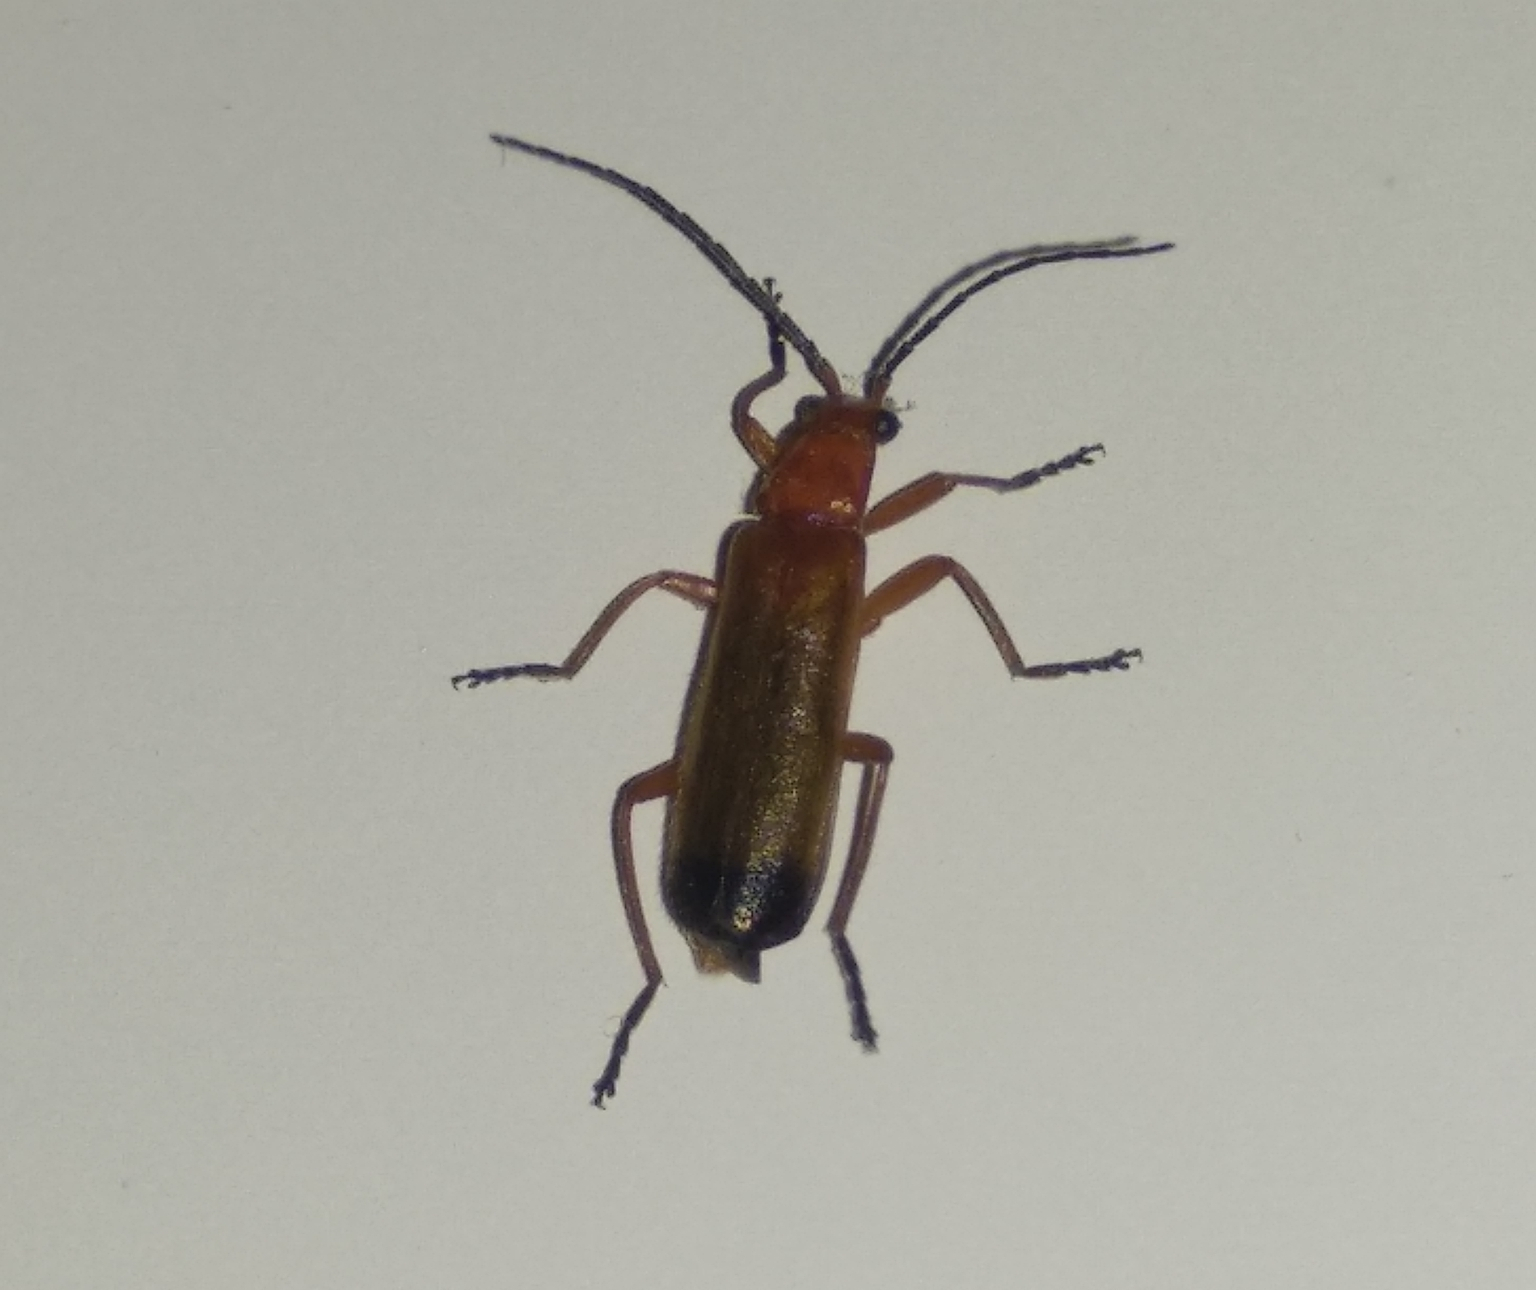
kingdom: Animalia
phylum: Arthropoda
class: Insecta
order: Coleoptera
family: Cantharidae
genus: Rhagonycha
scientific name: Rhagonycha fulva
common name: Common red soldier beetle
